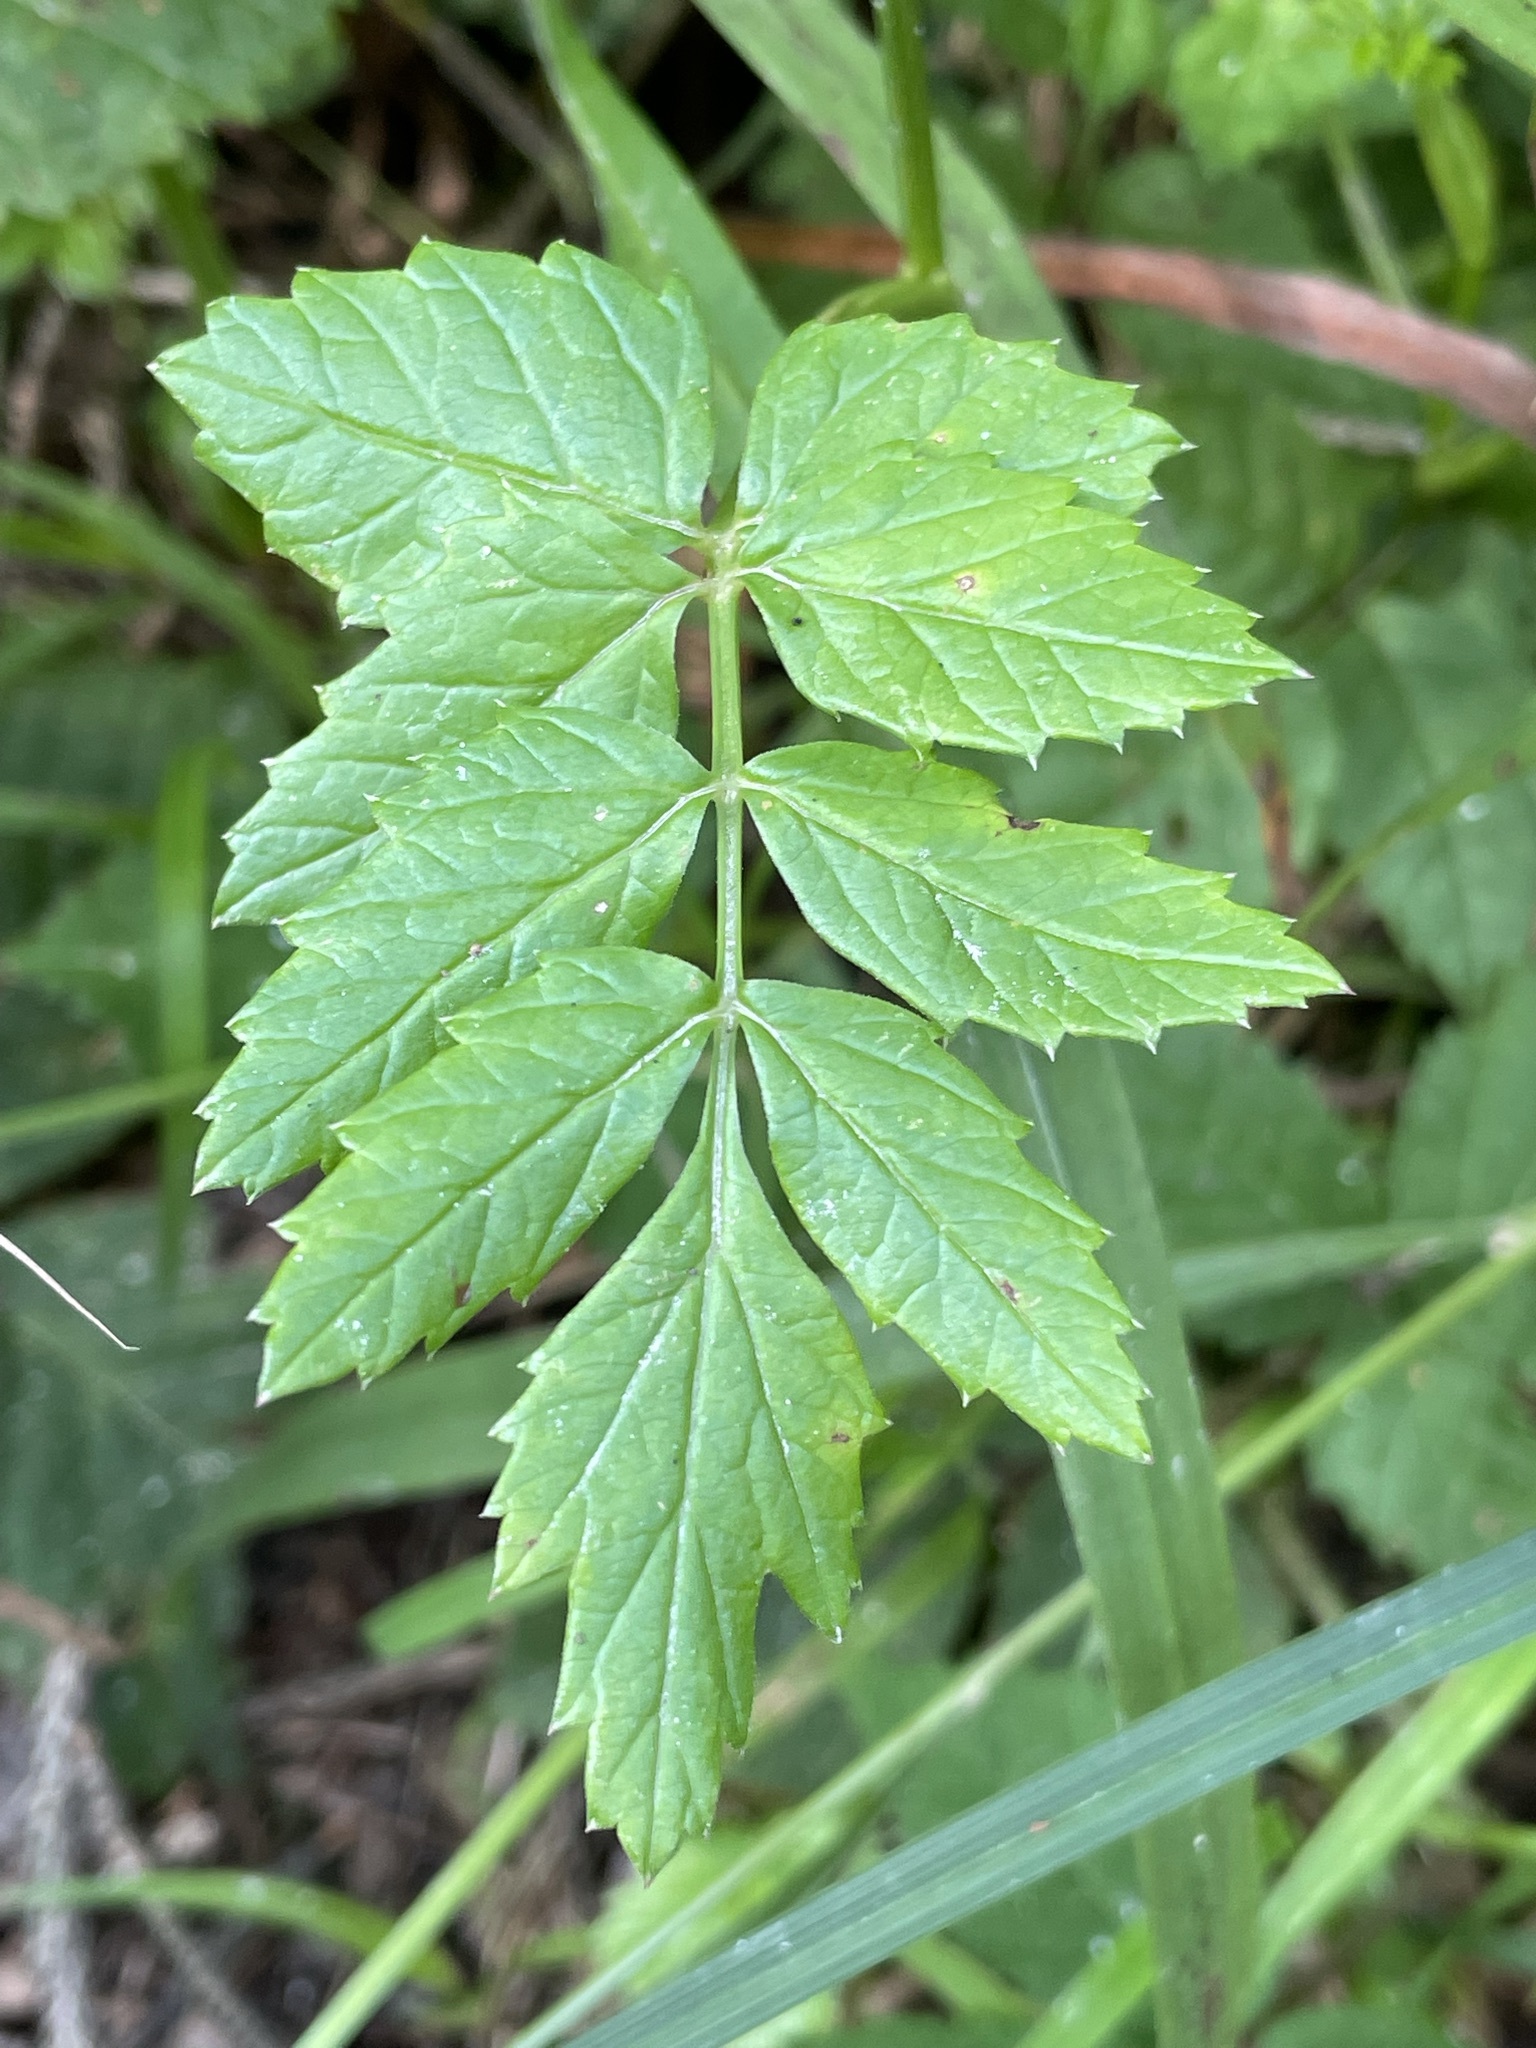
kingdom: Plantae
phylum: Tracheophyta
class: Magnoliopsida
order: Apiales
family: Apiaceae
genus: Pimpinella
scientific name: Pimpinella major
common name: Greater burnet-saxifrage
